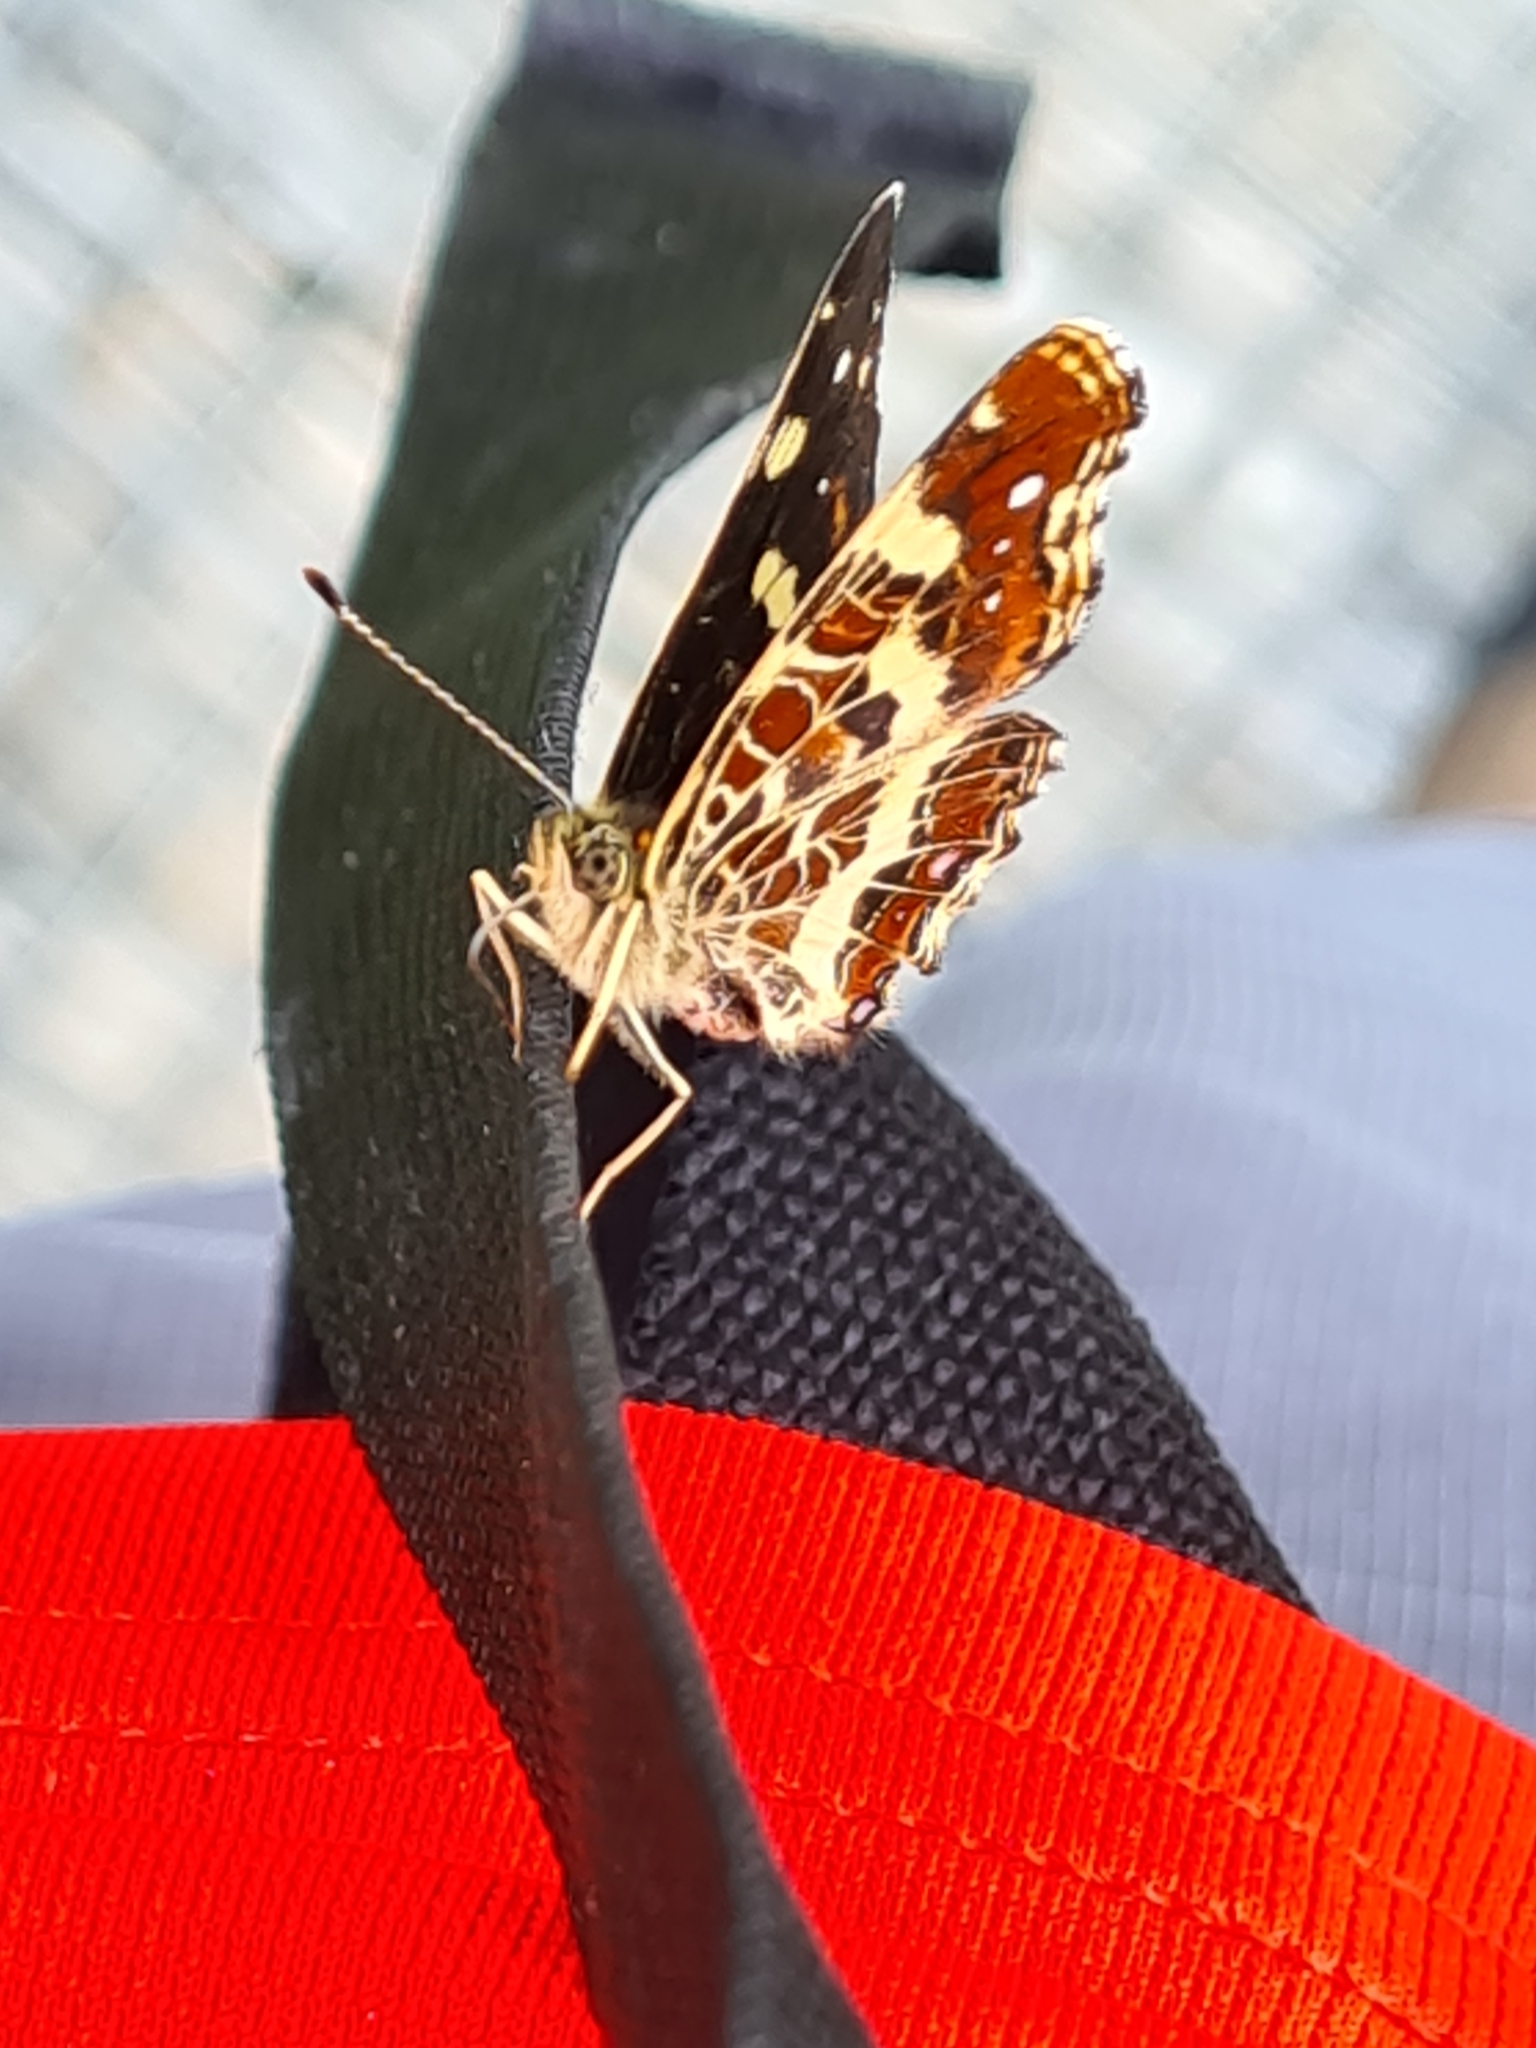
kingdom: Animalia
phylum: Arthropoda
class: Insecta
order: Lepidoptera
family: Nymphalidae
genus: Araschnia
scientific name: Araschnia levana
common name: Map butterfly
